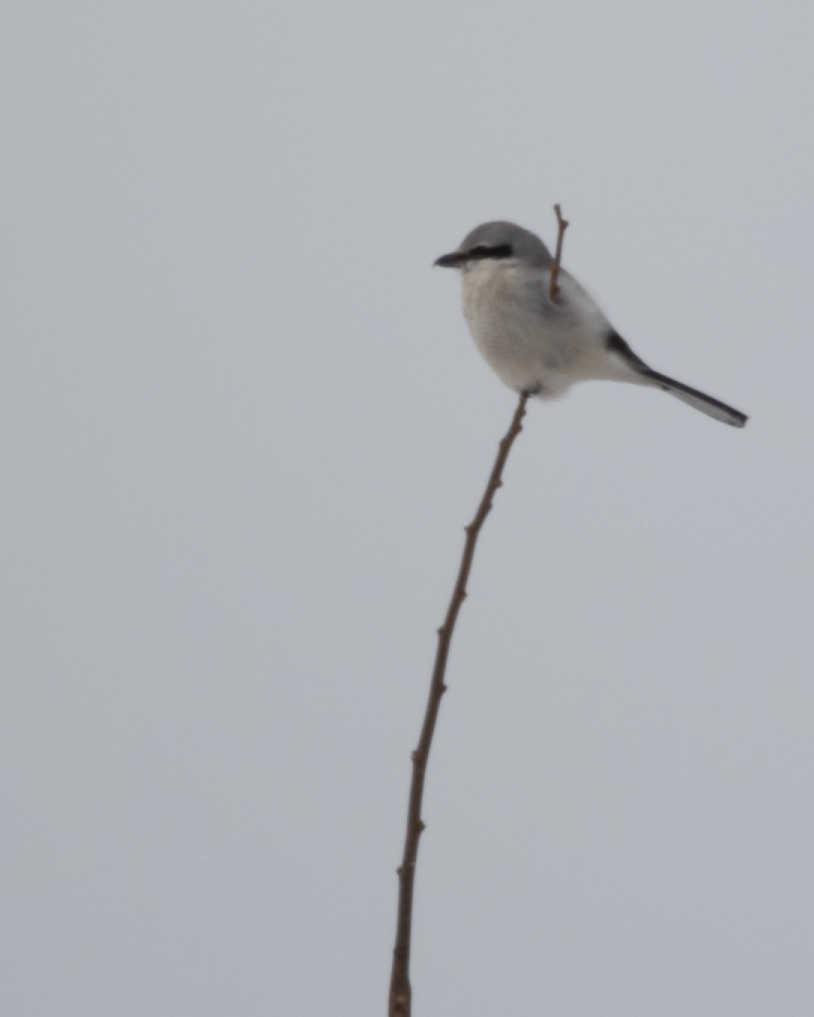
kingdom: Animalia
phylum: Chordata
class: Aves
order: Passeriformes
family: Laniidae
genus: Lanius
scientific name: Lanius borealis
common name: Northern shrike
